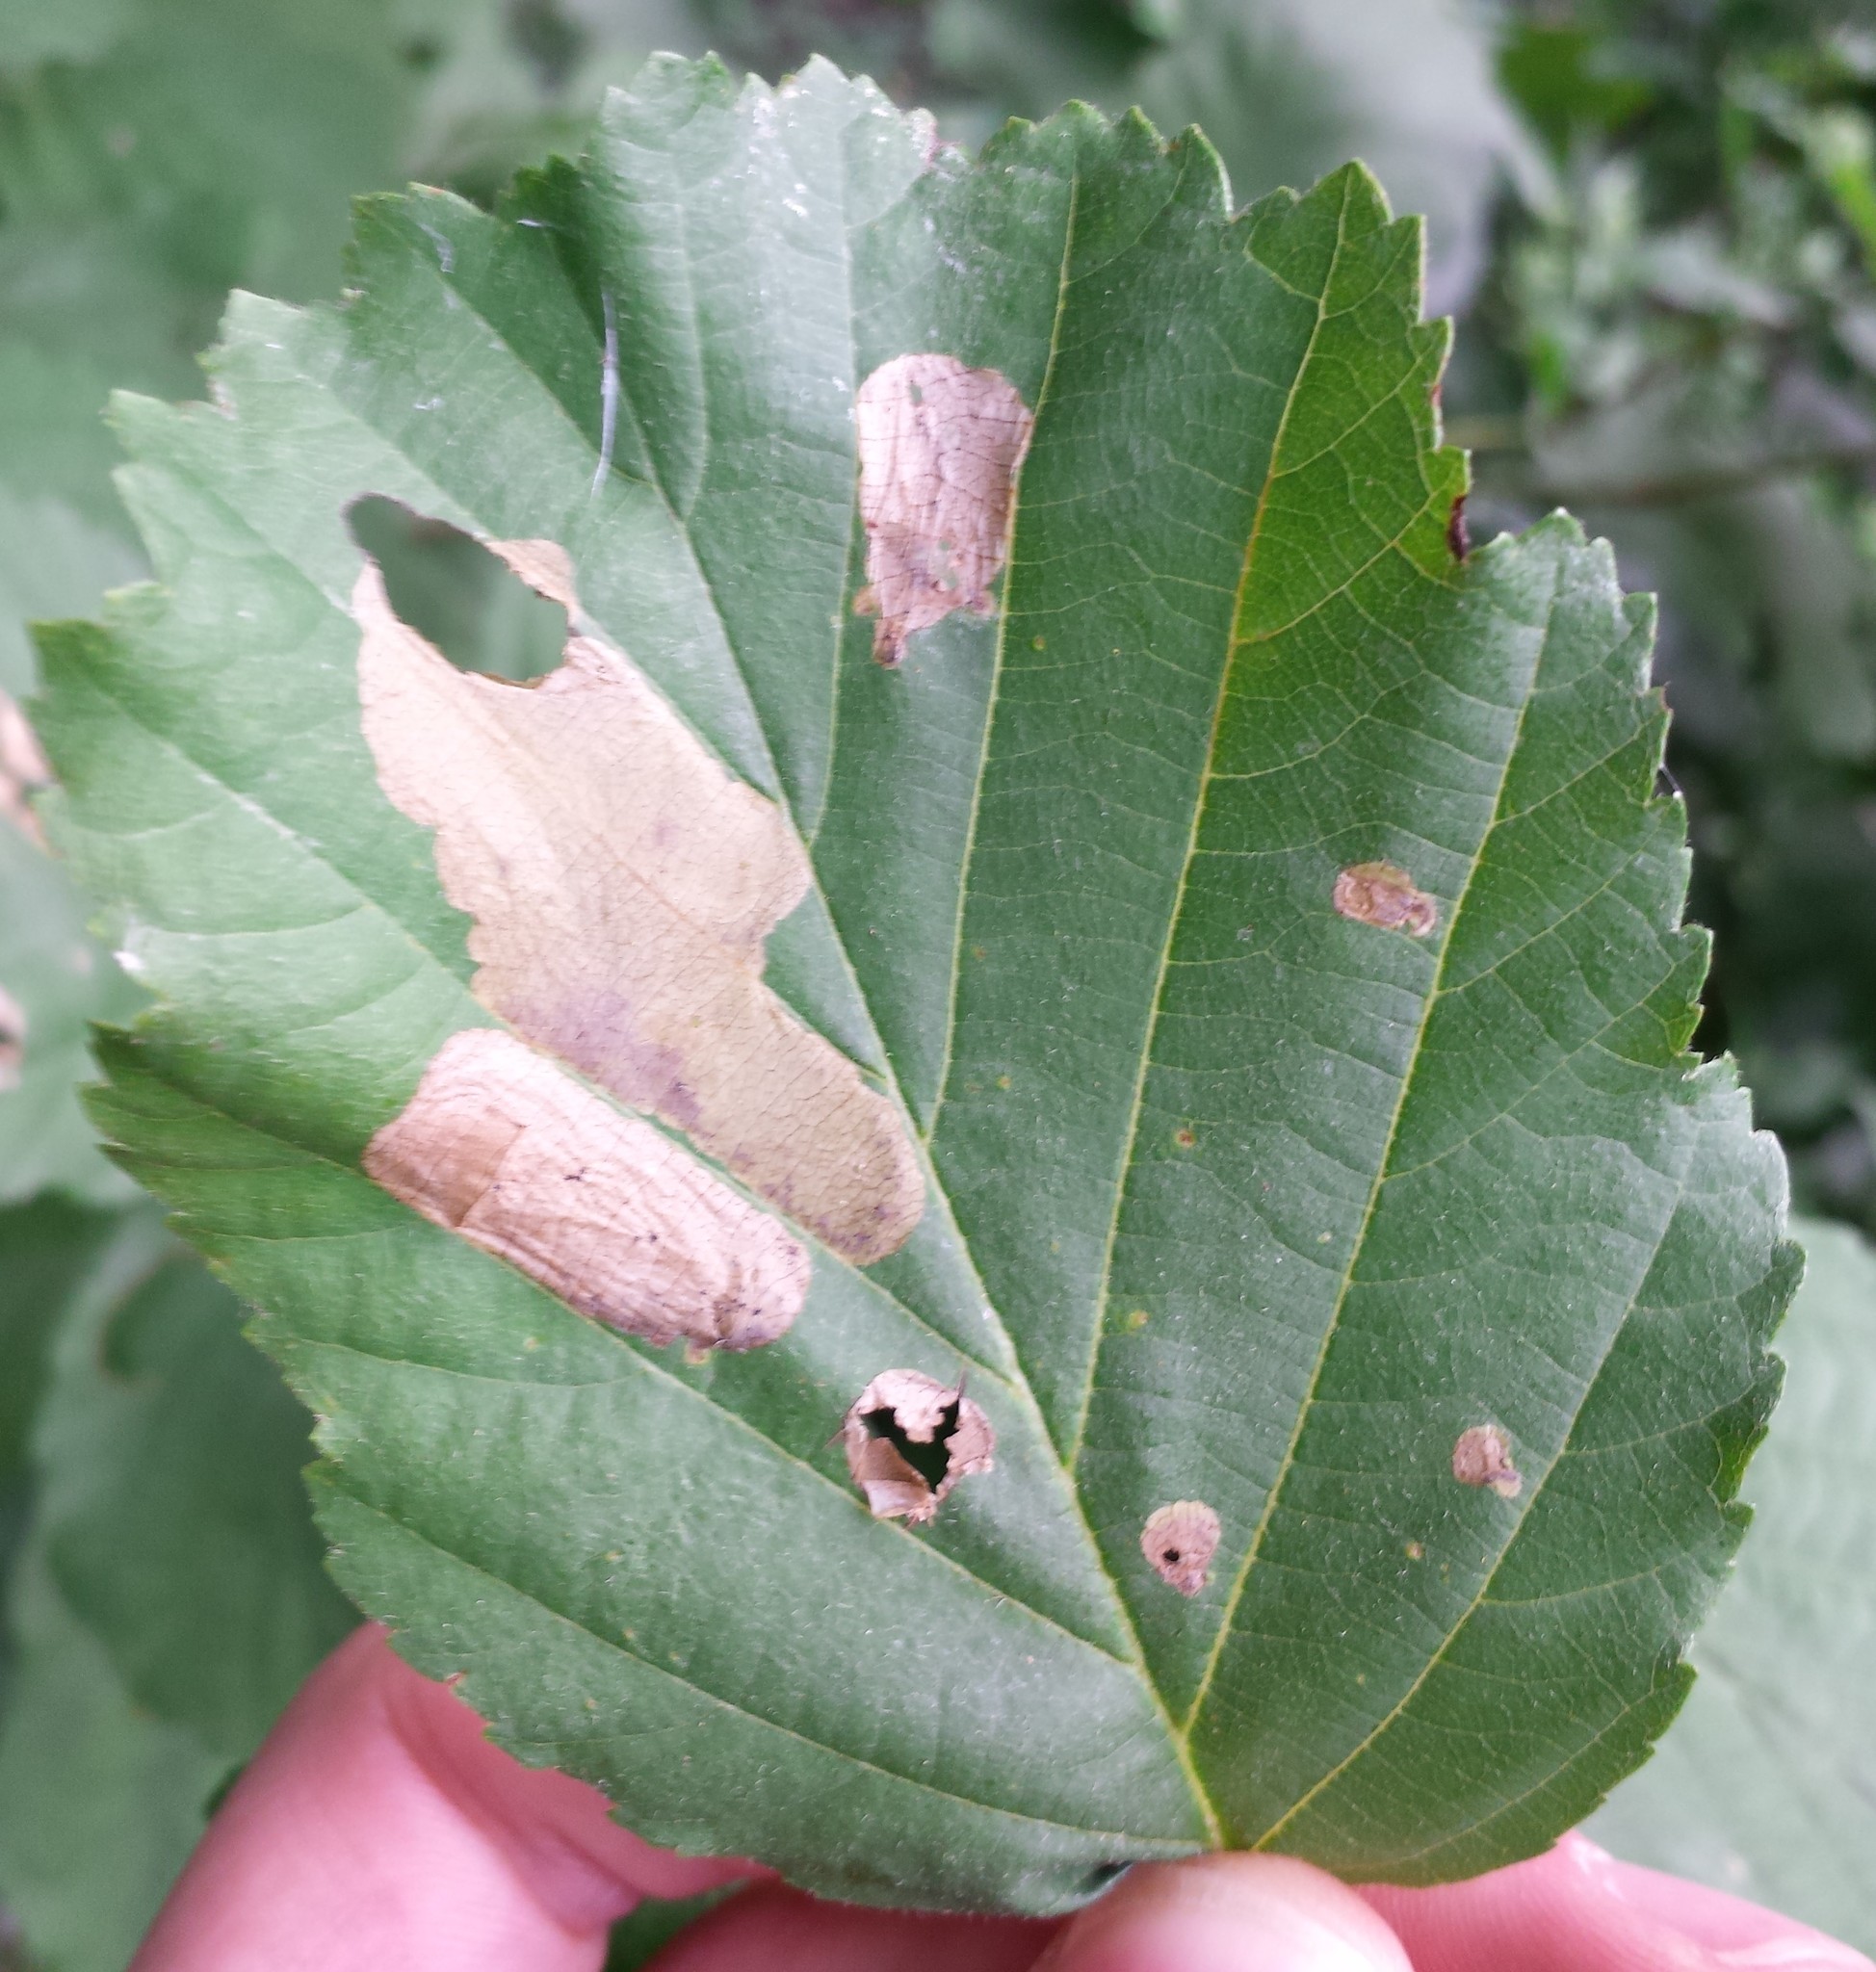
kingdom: Animalia
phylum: Arthropoda
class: Insecta
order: Hymenoptera
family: Tenthredinidae
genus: Fenusa
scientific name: Fenusa dohrnii
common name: European alder leafminer
